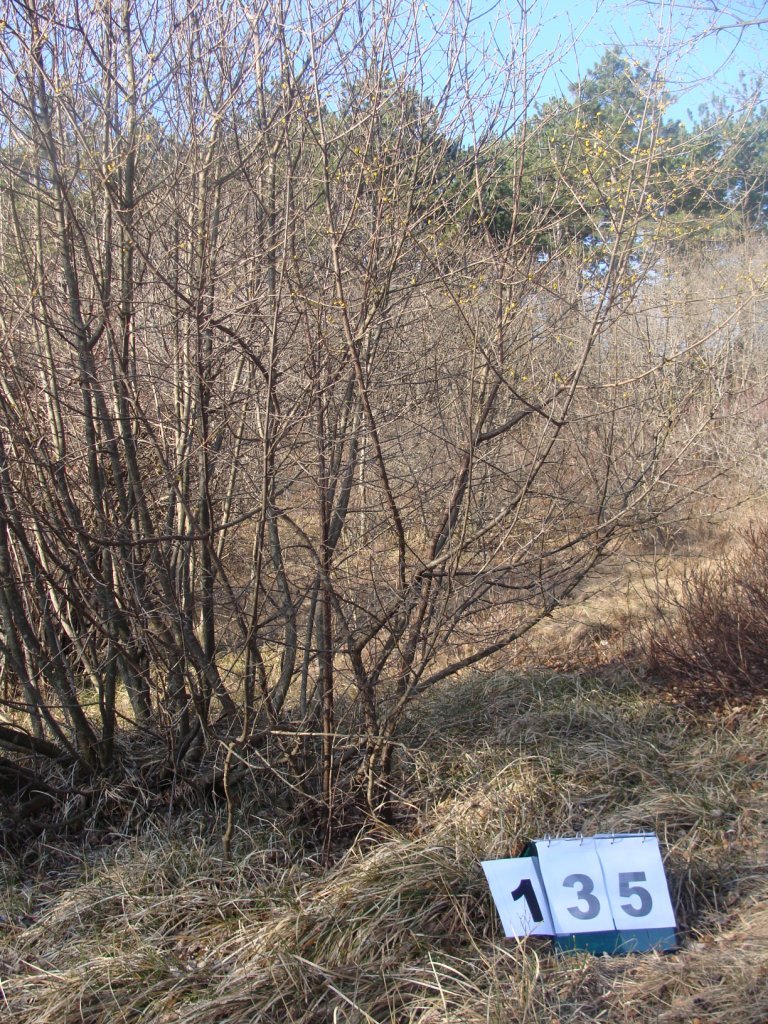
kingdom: Plantae
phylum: Tracheophyta
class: Magnoliopsida
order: Cornales
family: Cornaceae
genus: Cornus
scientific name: Cornus mas
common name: Cornelian-cherry
